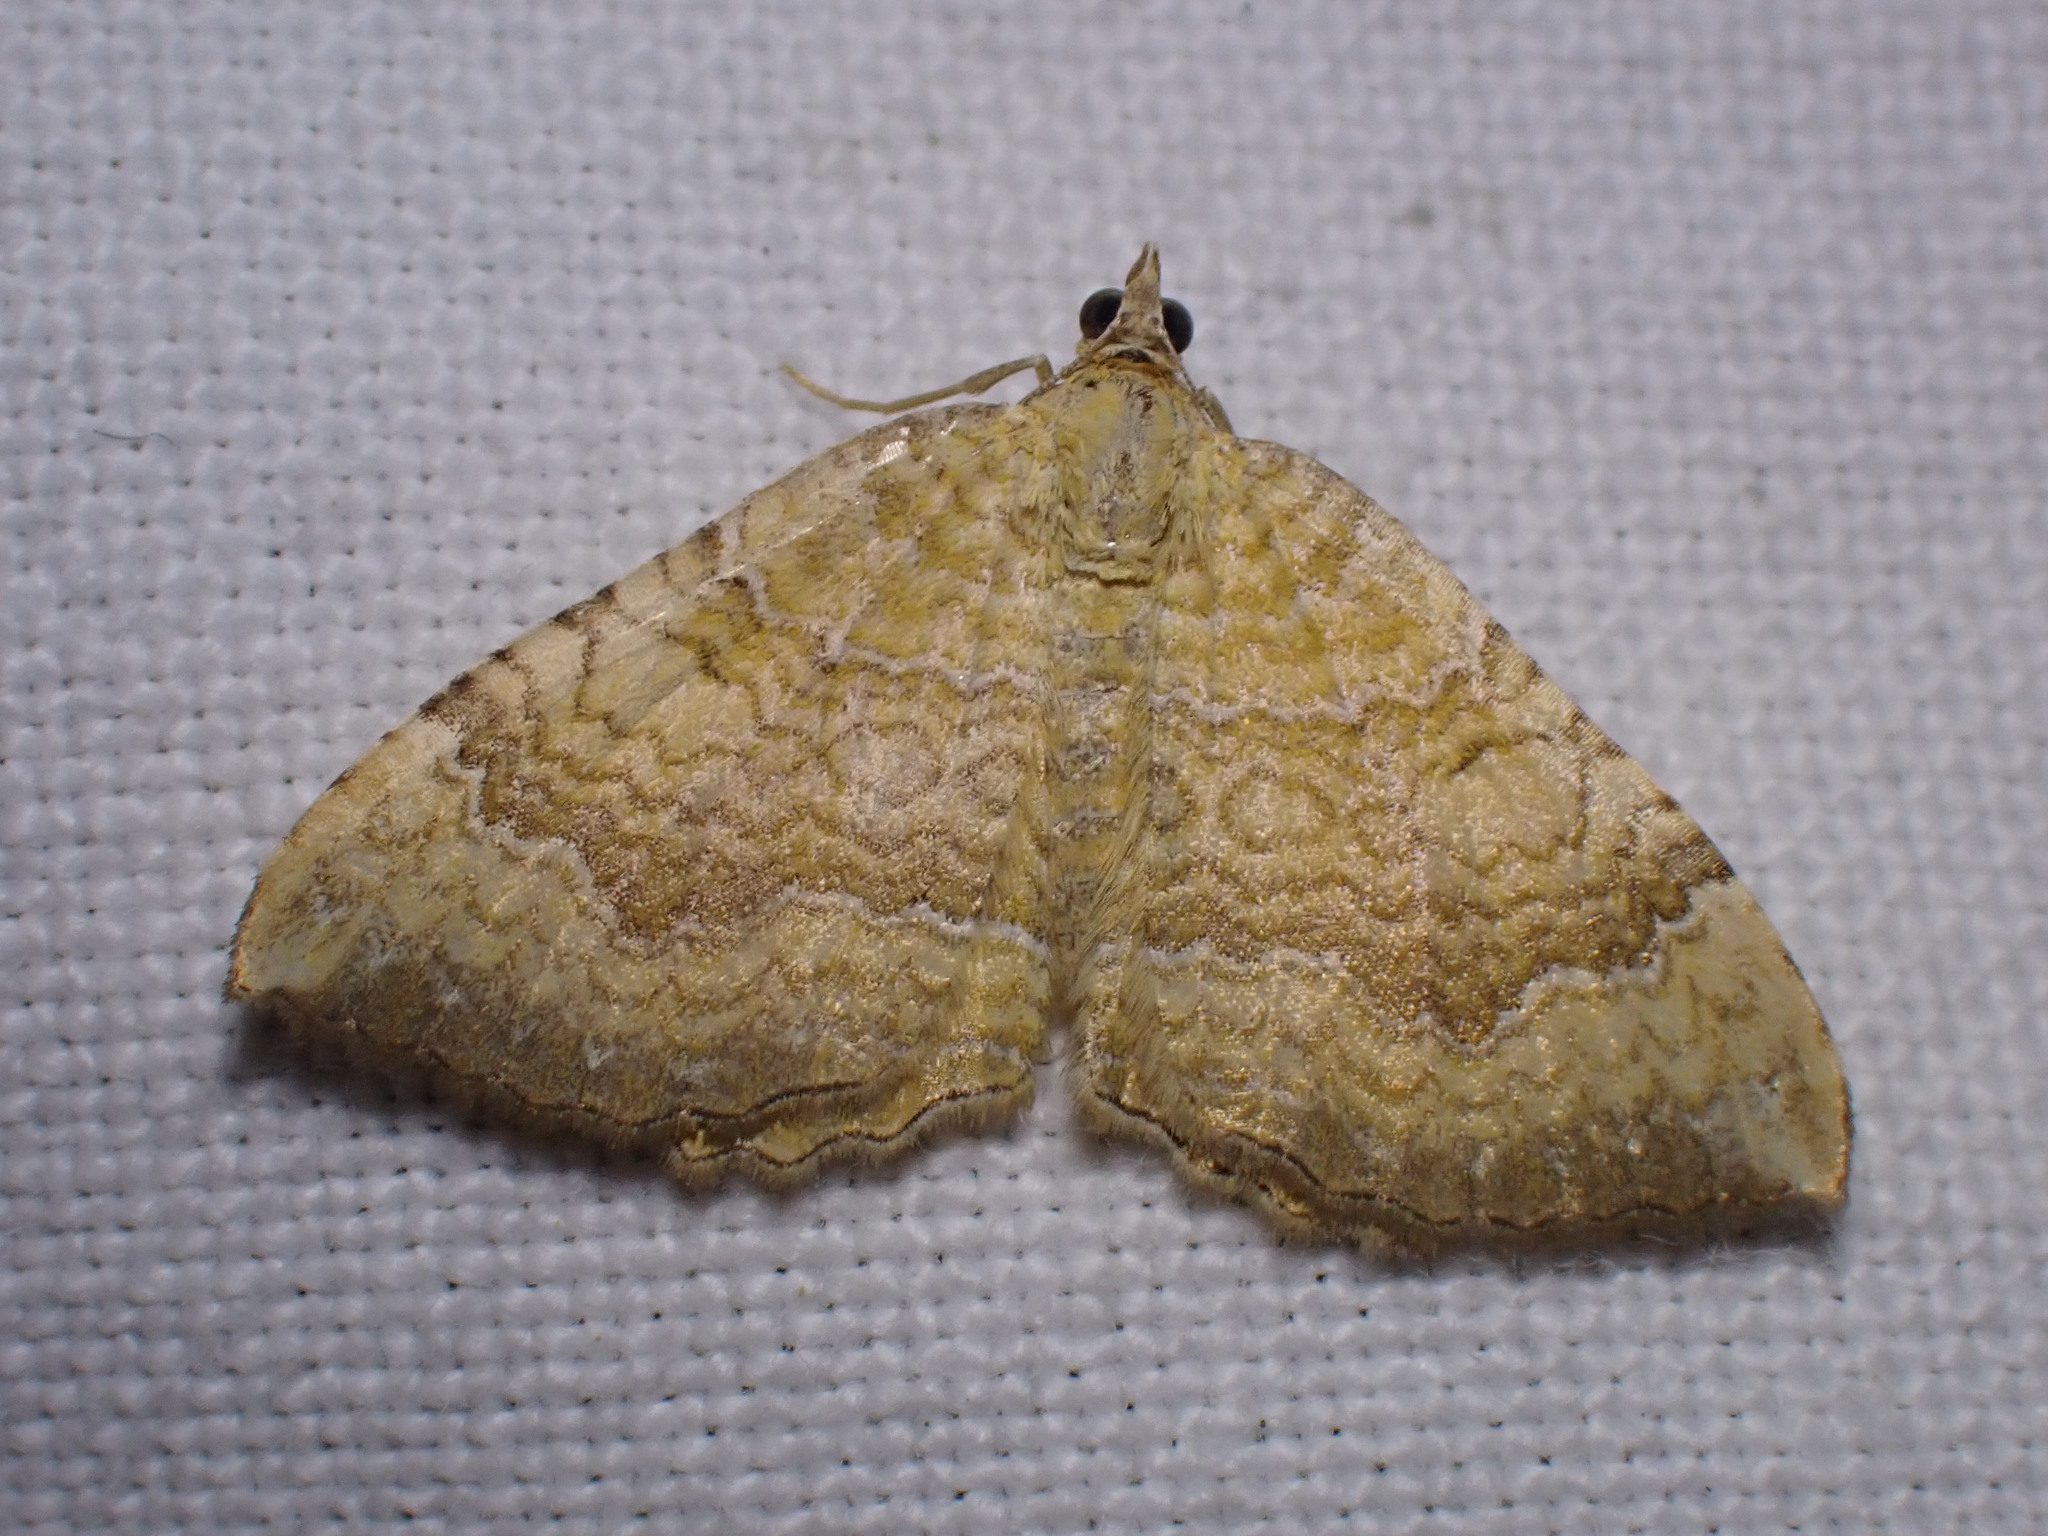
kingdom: Animalia
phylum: Arthropoda
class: Insecta
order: Lepidoptera
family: Geometridae
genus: Camptogramma
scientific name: Camptogramma bilineata
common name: Yellow shell
